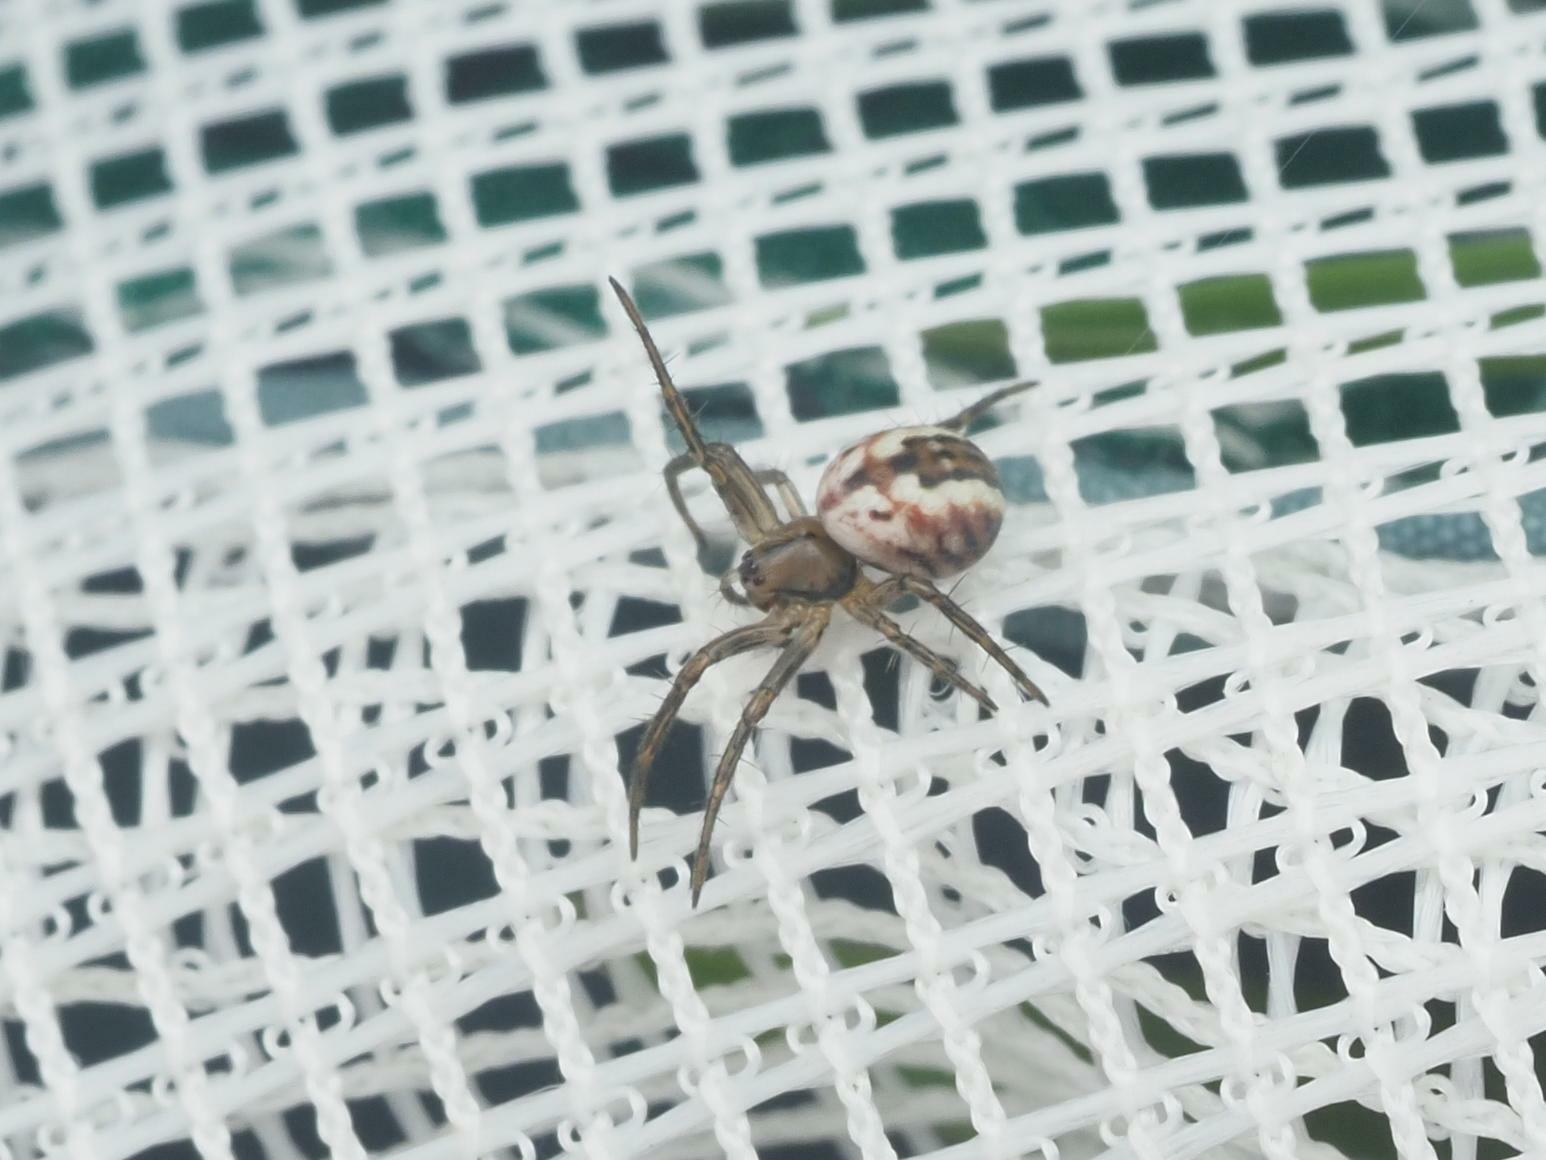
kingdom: Animalia
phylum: Arthropoda
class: Arachnida
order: Araneae
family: Araneidae
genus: Mangora
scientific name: Mangora acalypha
